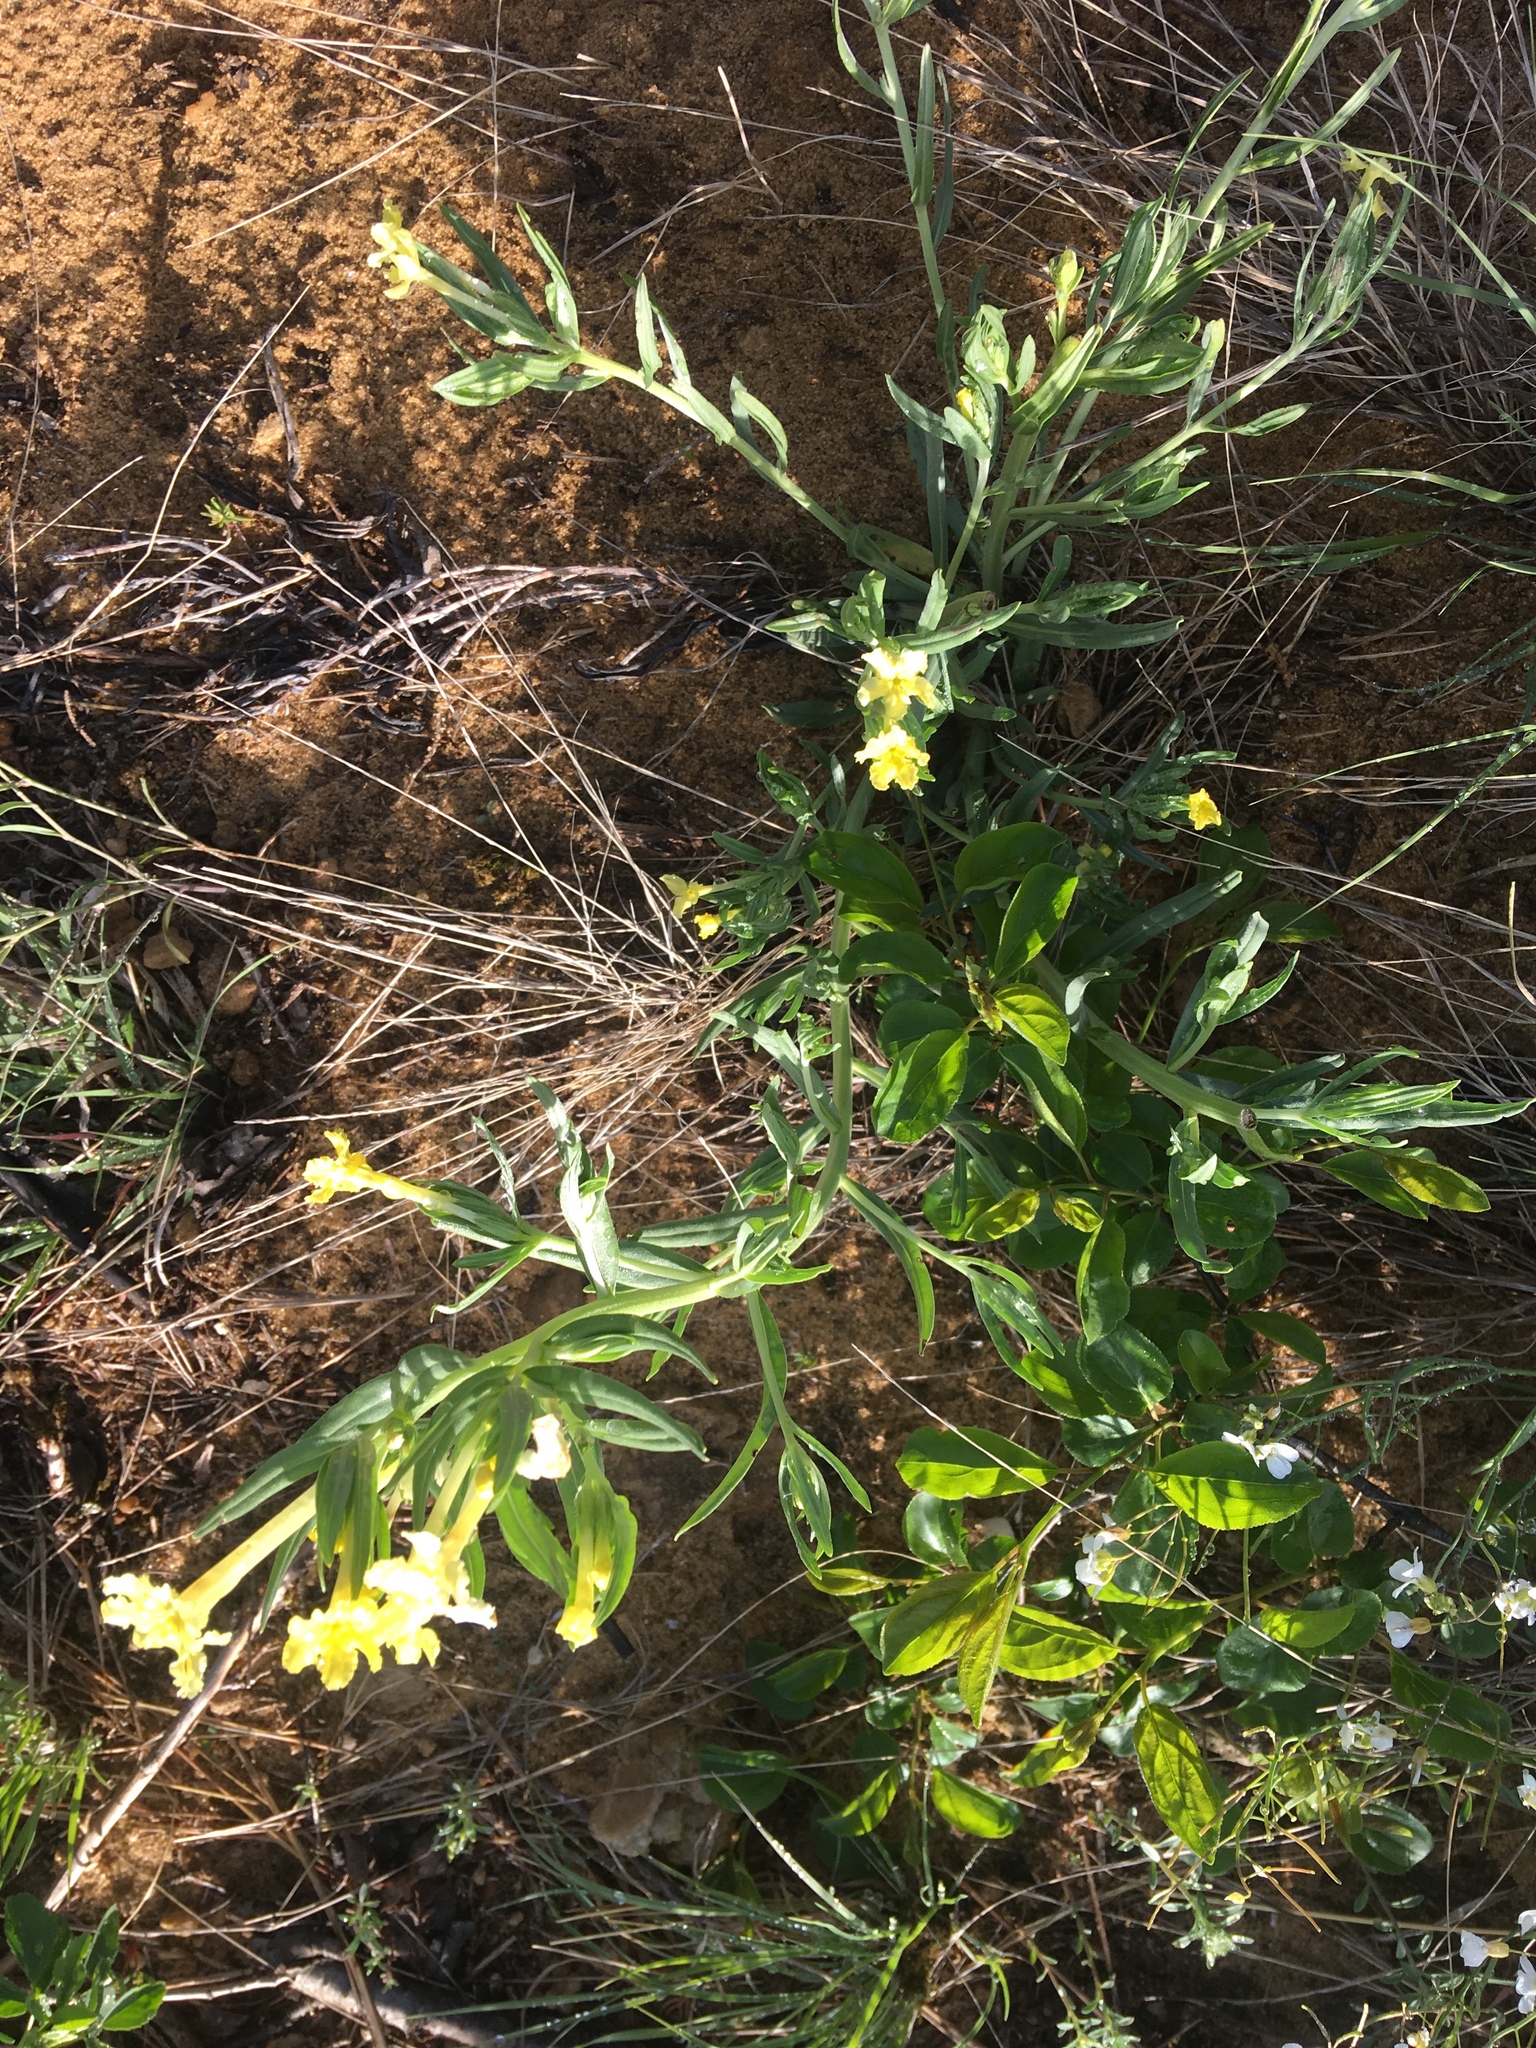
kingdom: Plantae
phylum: Tracheophyta
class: Magnoliopsida
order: Boraginales
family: Boraginaceae
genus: Lithospermum
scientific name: Lithospermum incisum
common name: Fringed gromwell
